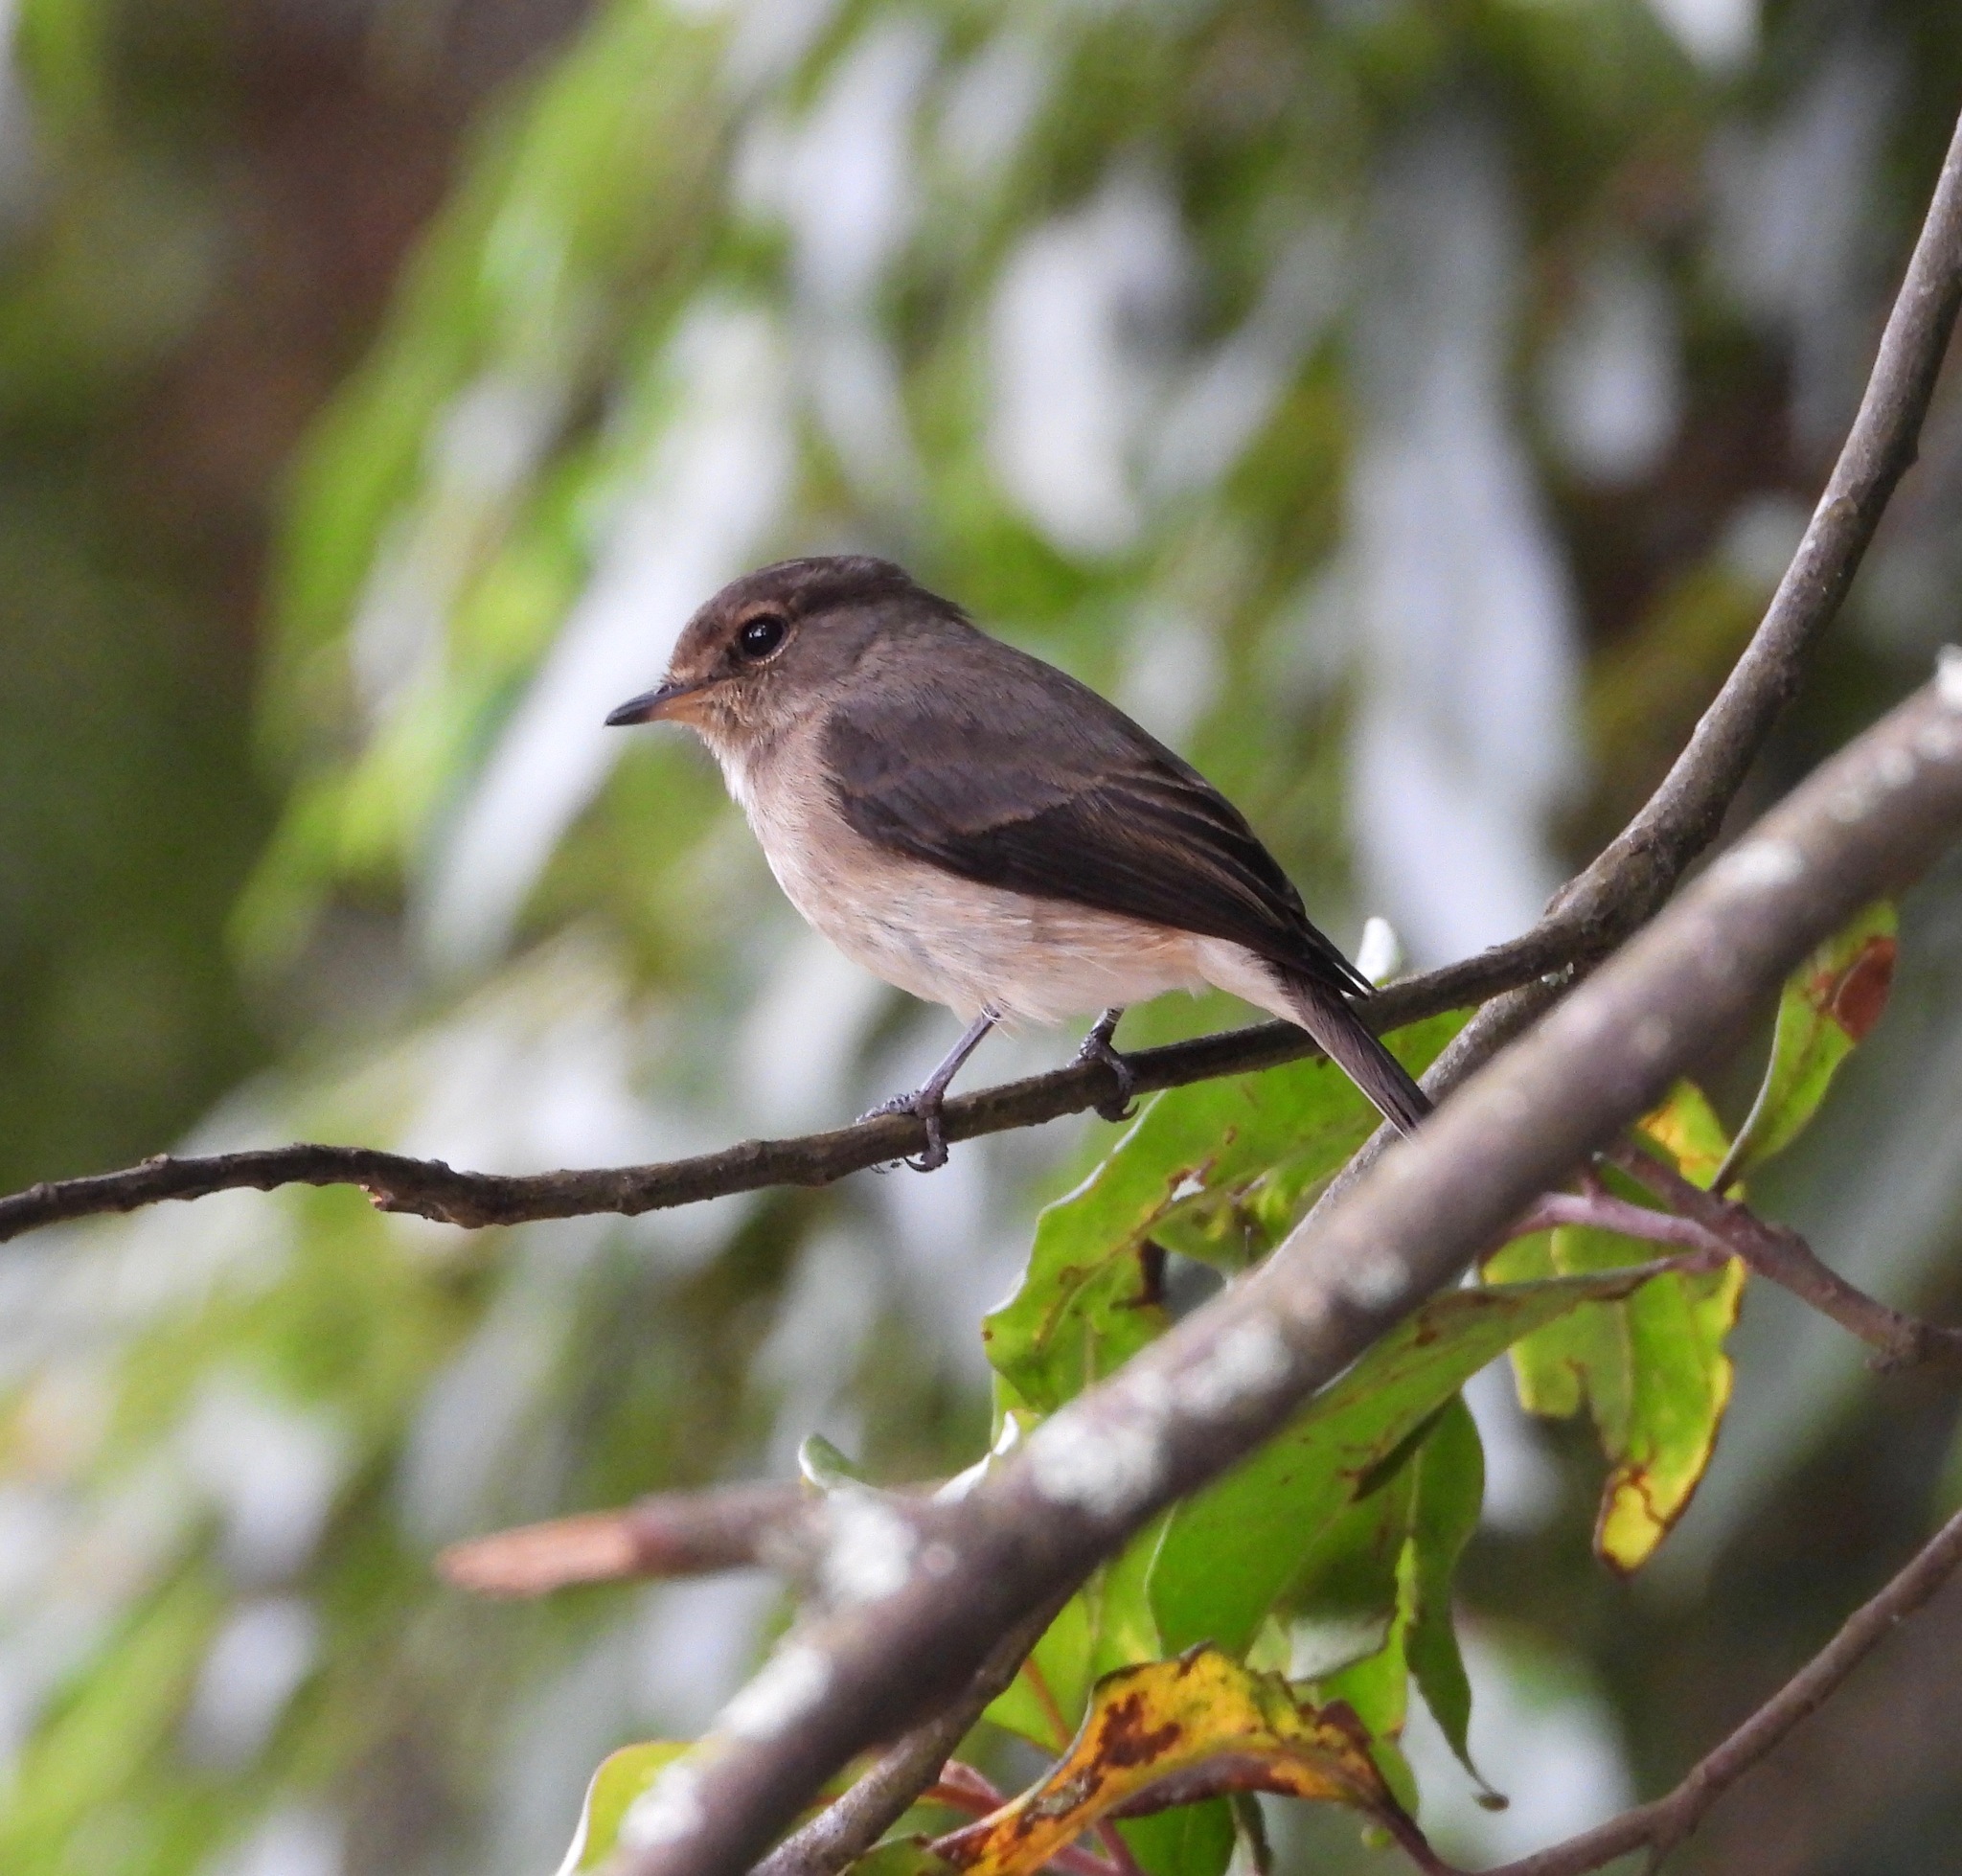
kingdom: Animalia
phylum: Chordata
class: Aves
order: Passeriformes
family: Muscicapidae
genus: Muscicapa
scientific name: Muscicapa adusta
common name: African dusky flycatcher
